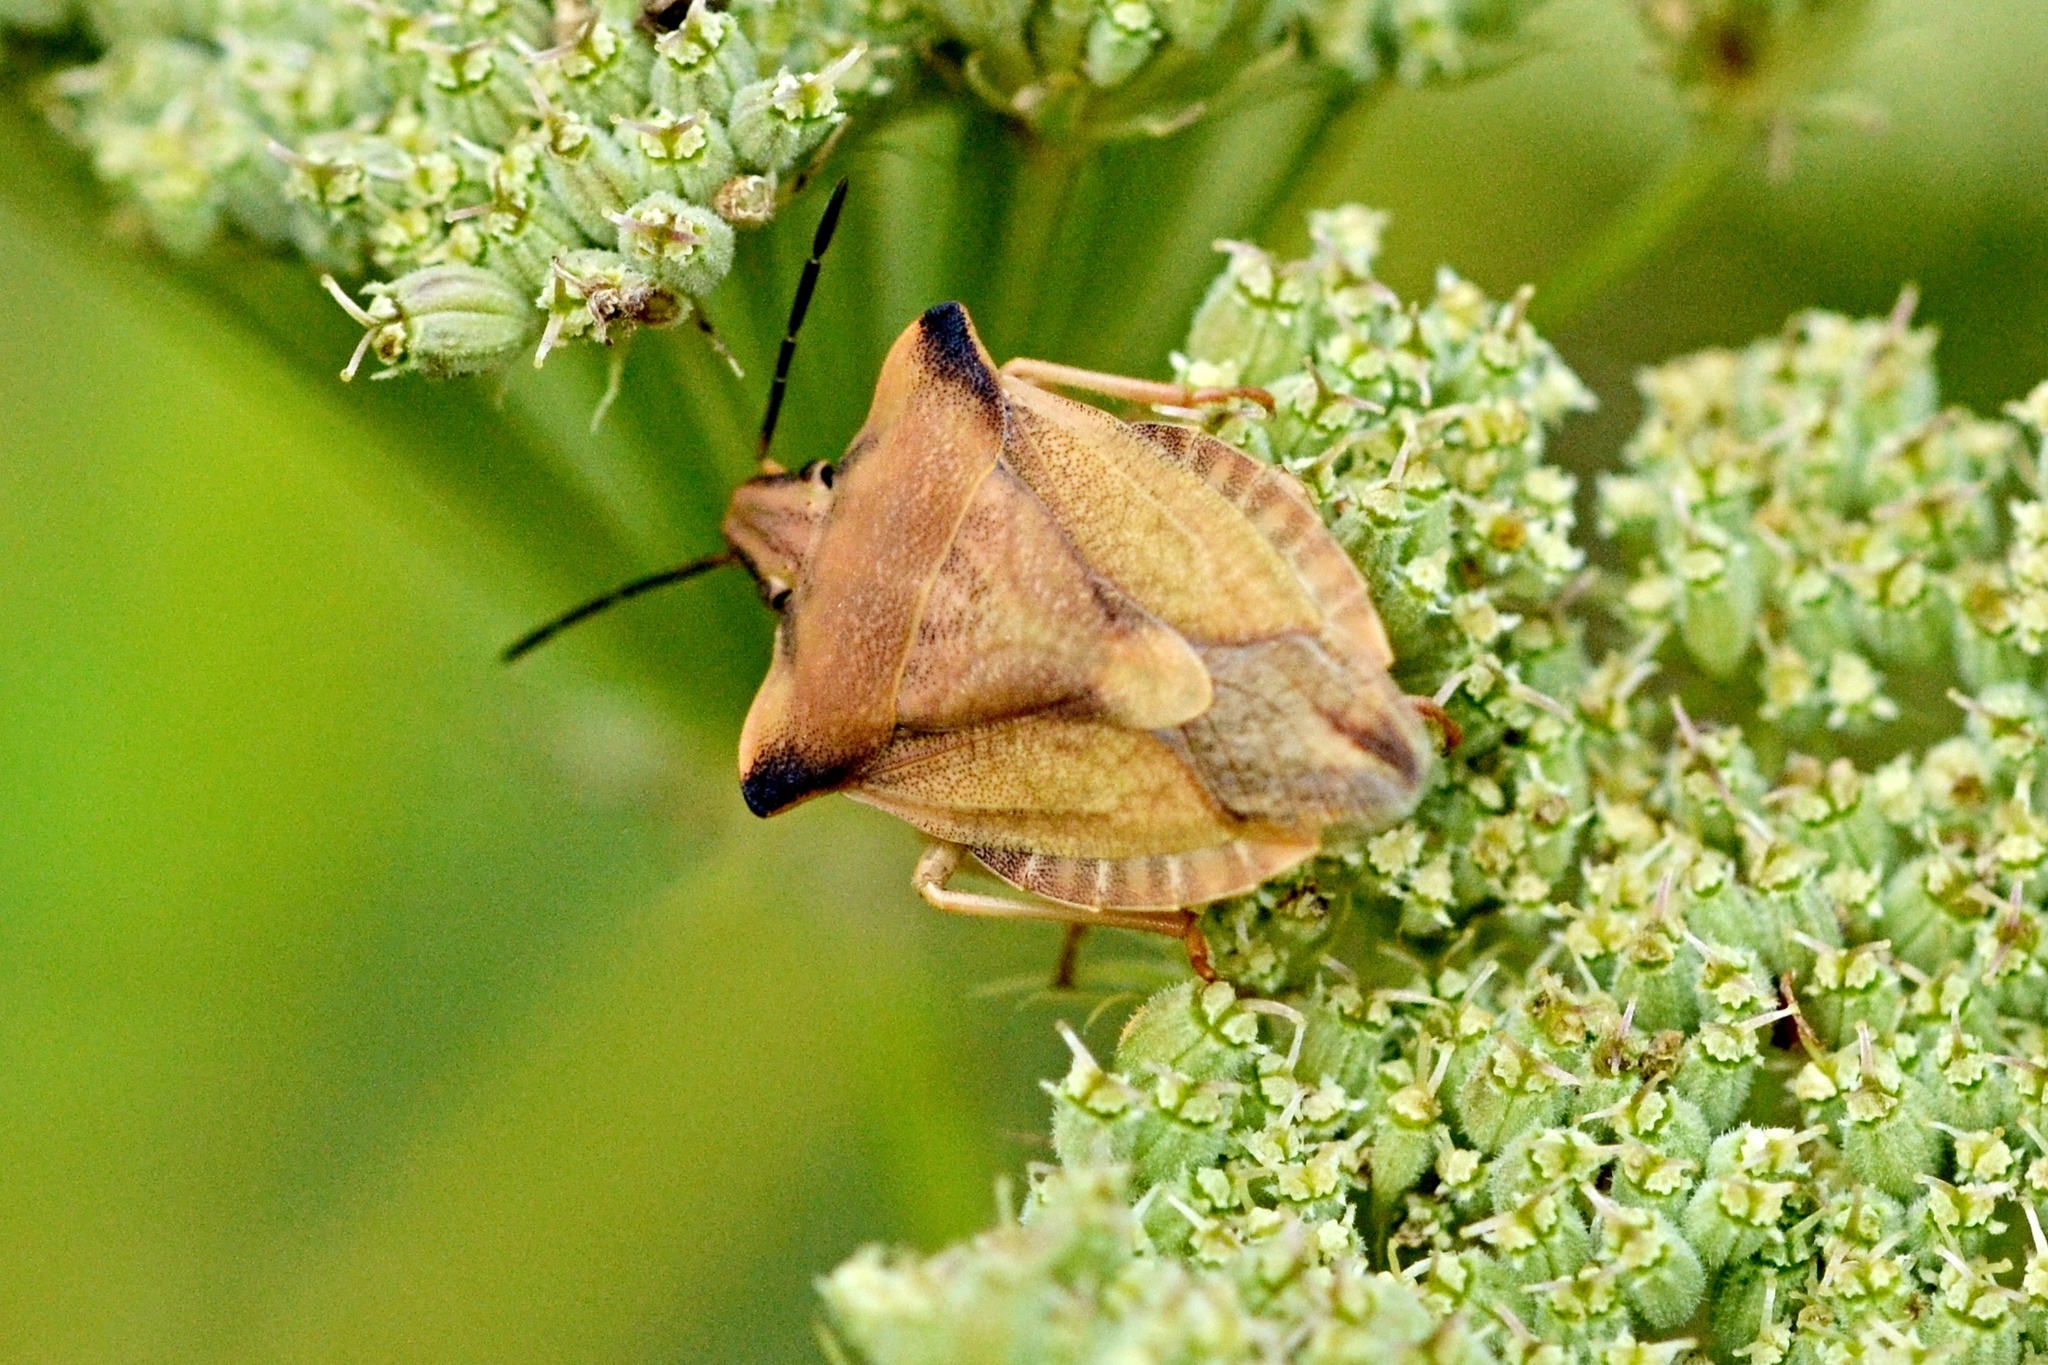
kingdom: Animalia
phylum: Arthropoda
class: Insecta
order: Hemiptera
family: Pentatomidae
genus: Carpocoris
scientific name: Carpocoris fuscispinus
